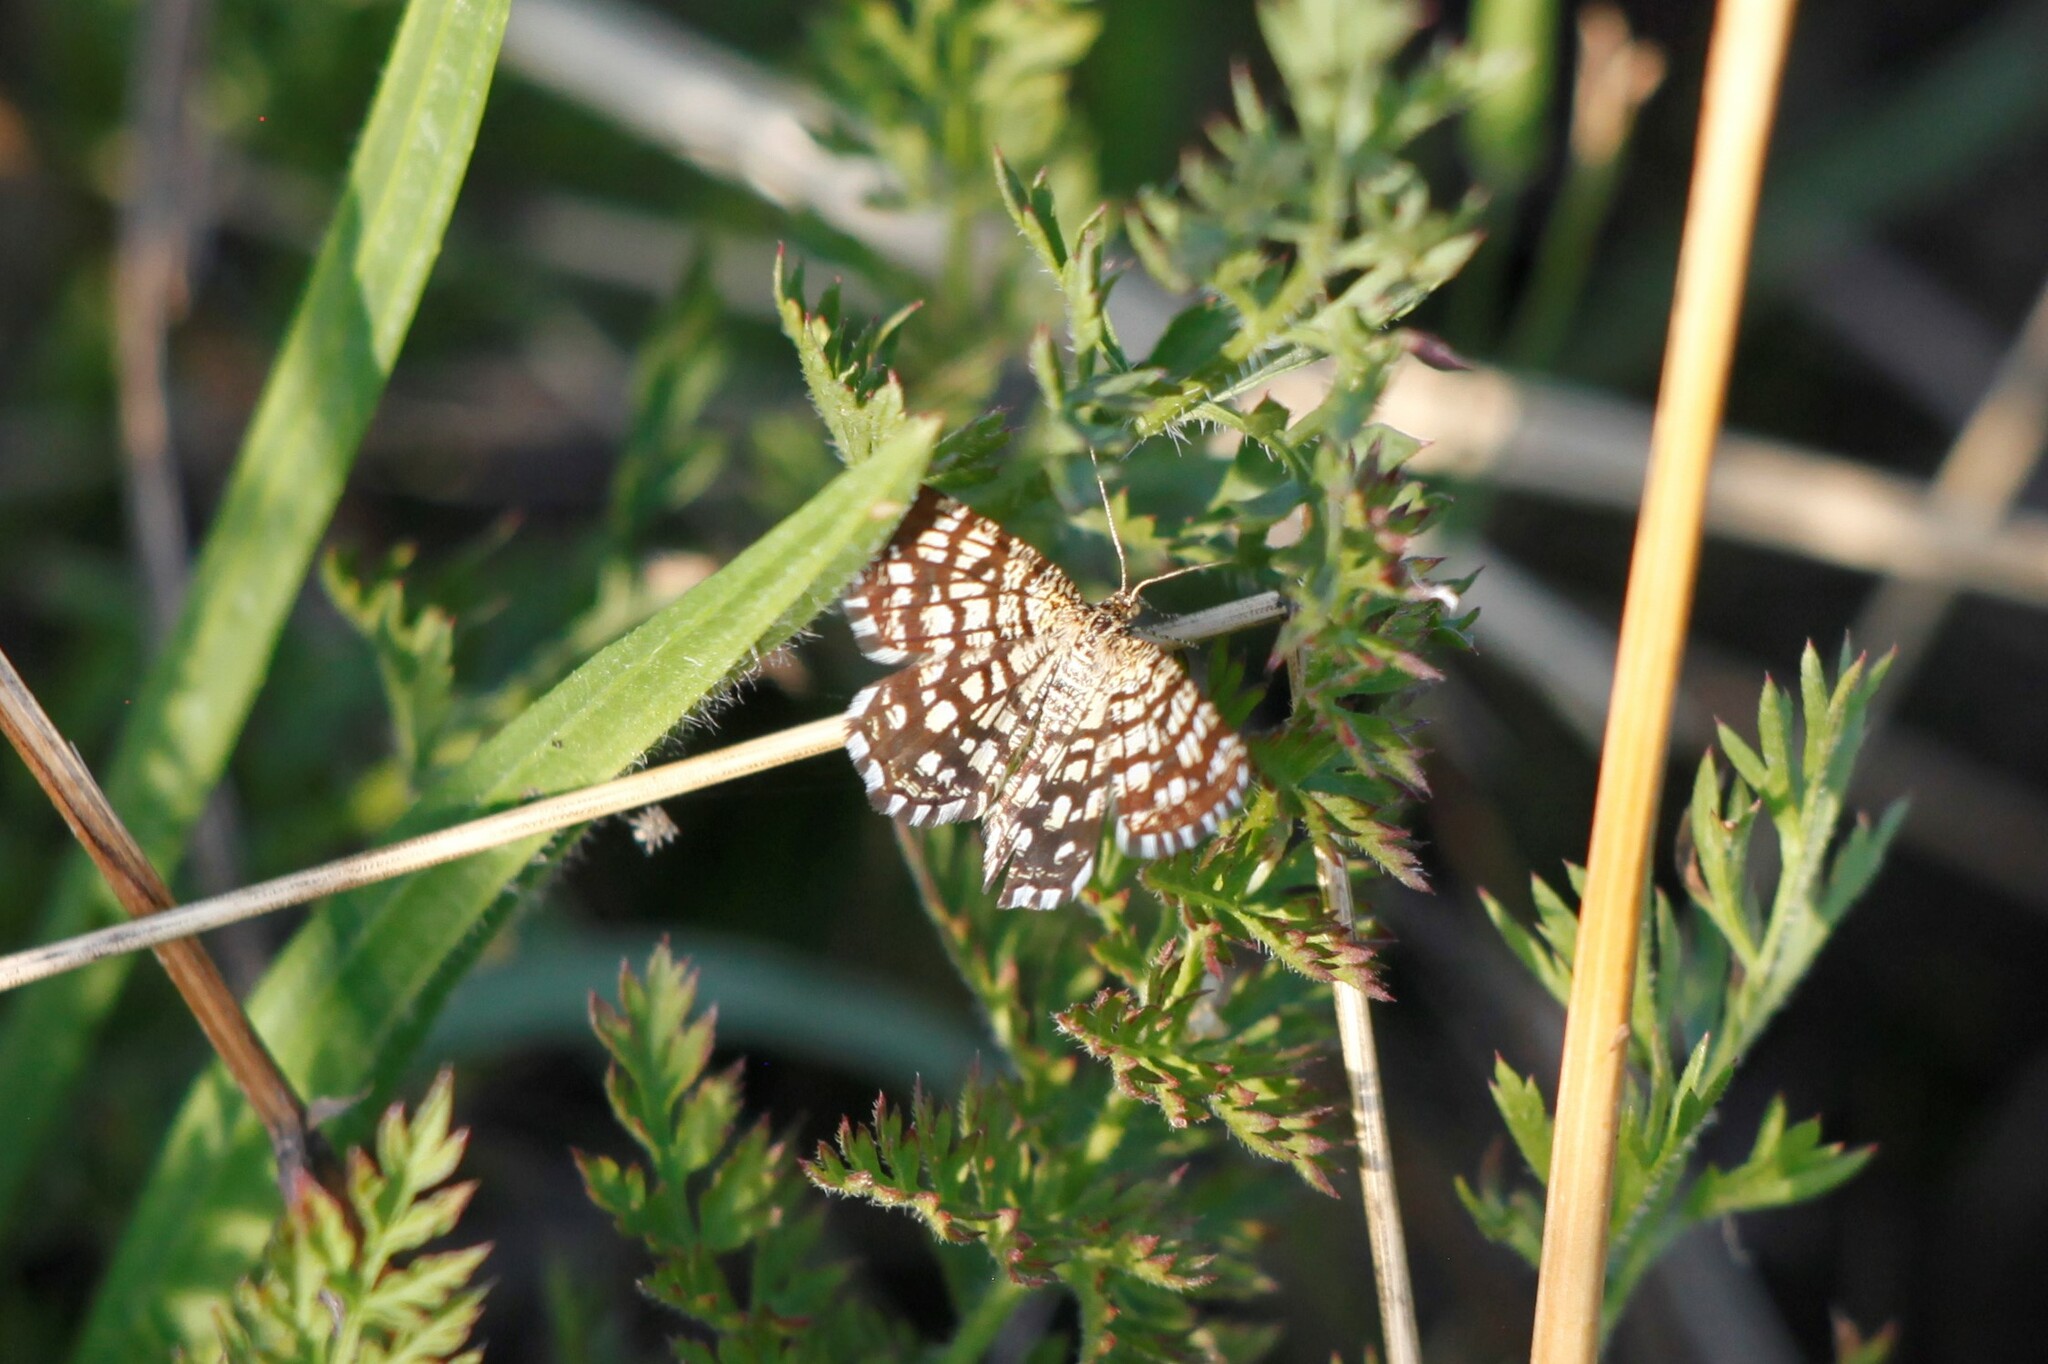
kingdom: Animalia
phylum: Arthropoda
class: Insecta
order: Lepidoptera
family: Geometridae
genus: Chiasmia
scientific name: Chiasmia clathrata
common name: Latticed heath
